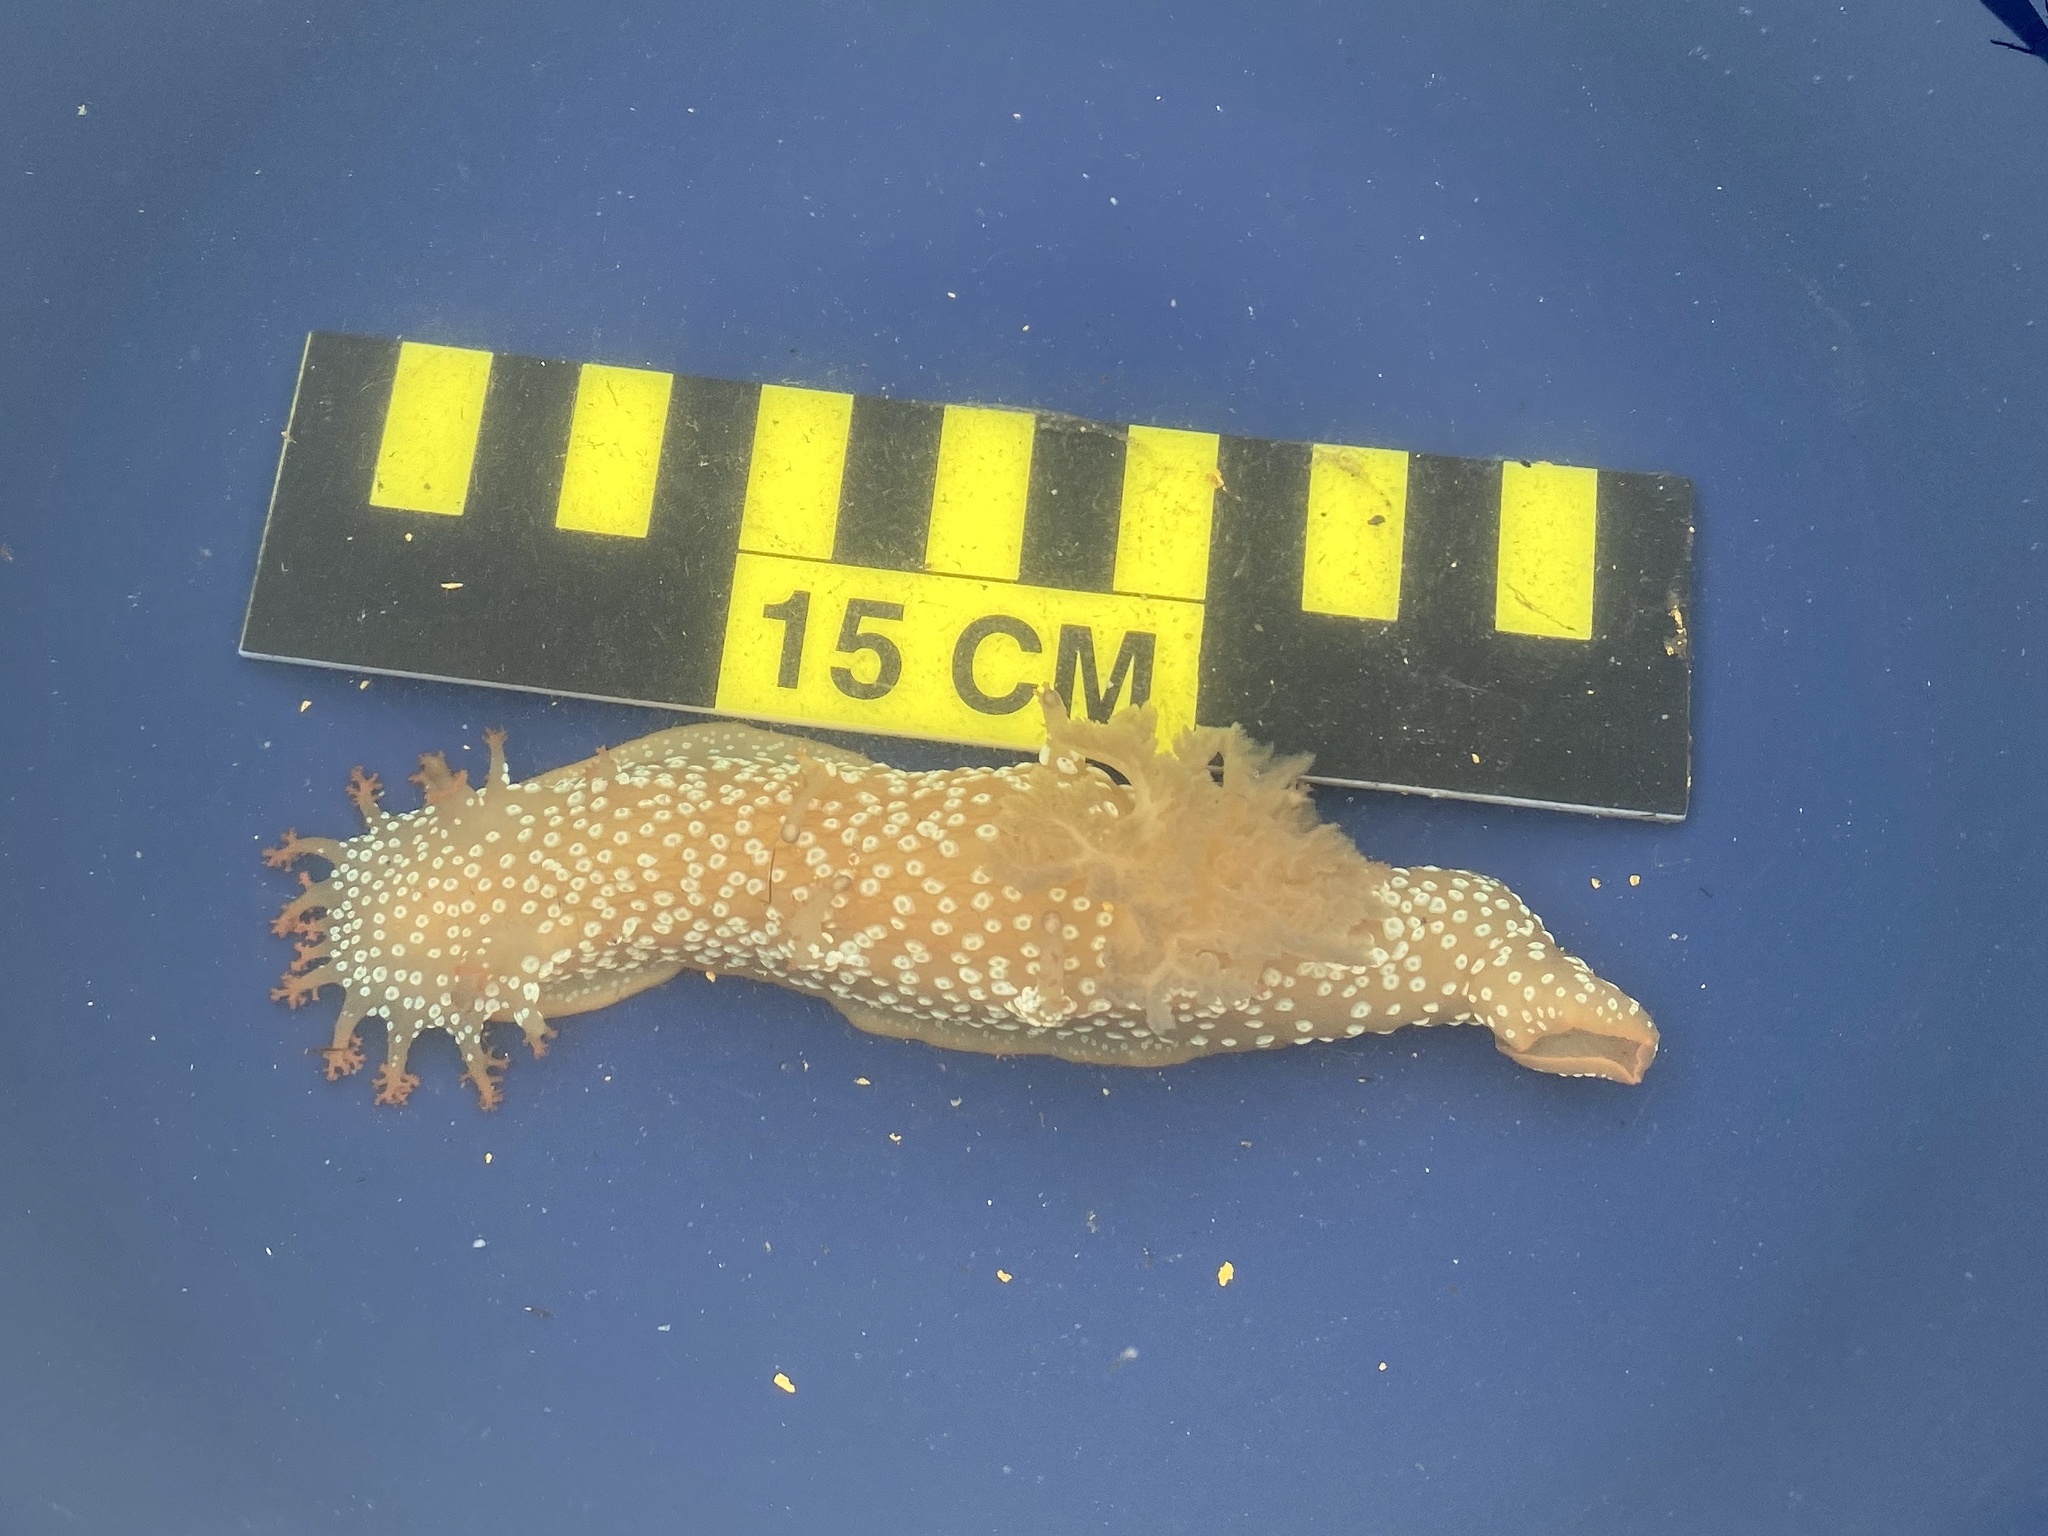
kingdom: Animalia
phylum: Mollusca
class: Gastropoda
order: Nudibranchia
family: Polyceridae
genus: Triopha
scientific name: Triopha maculata
